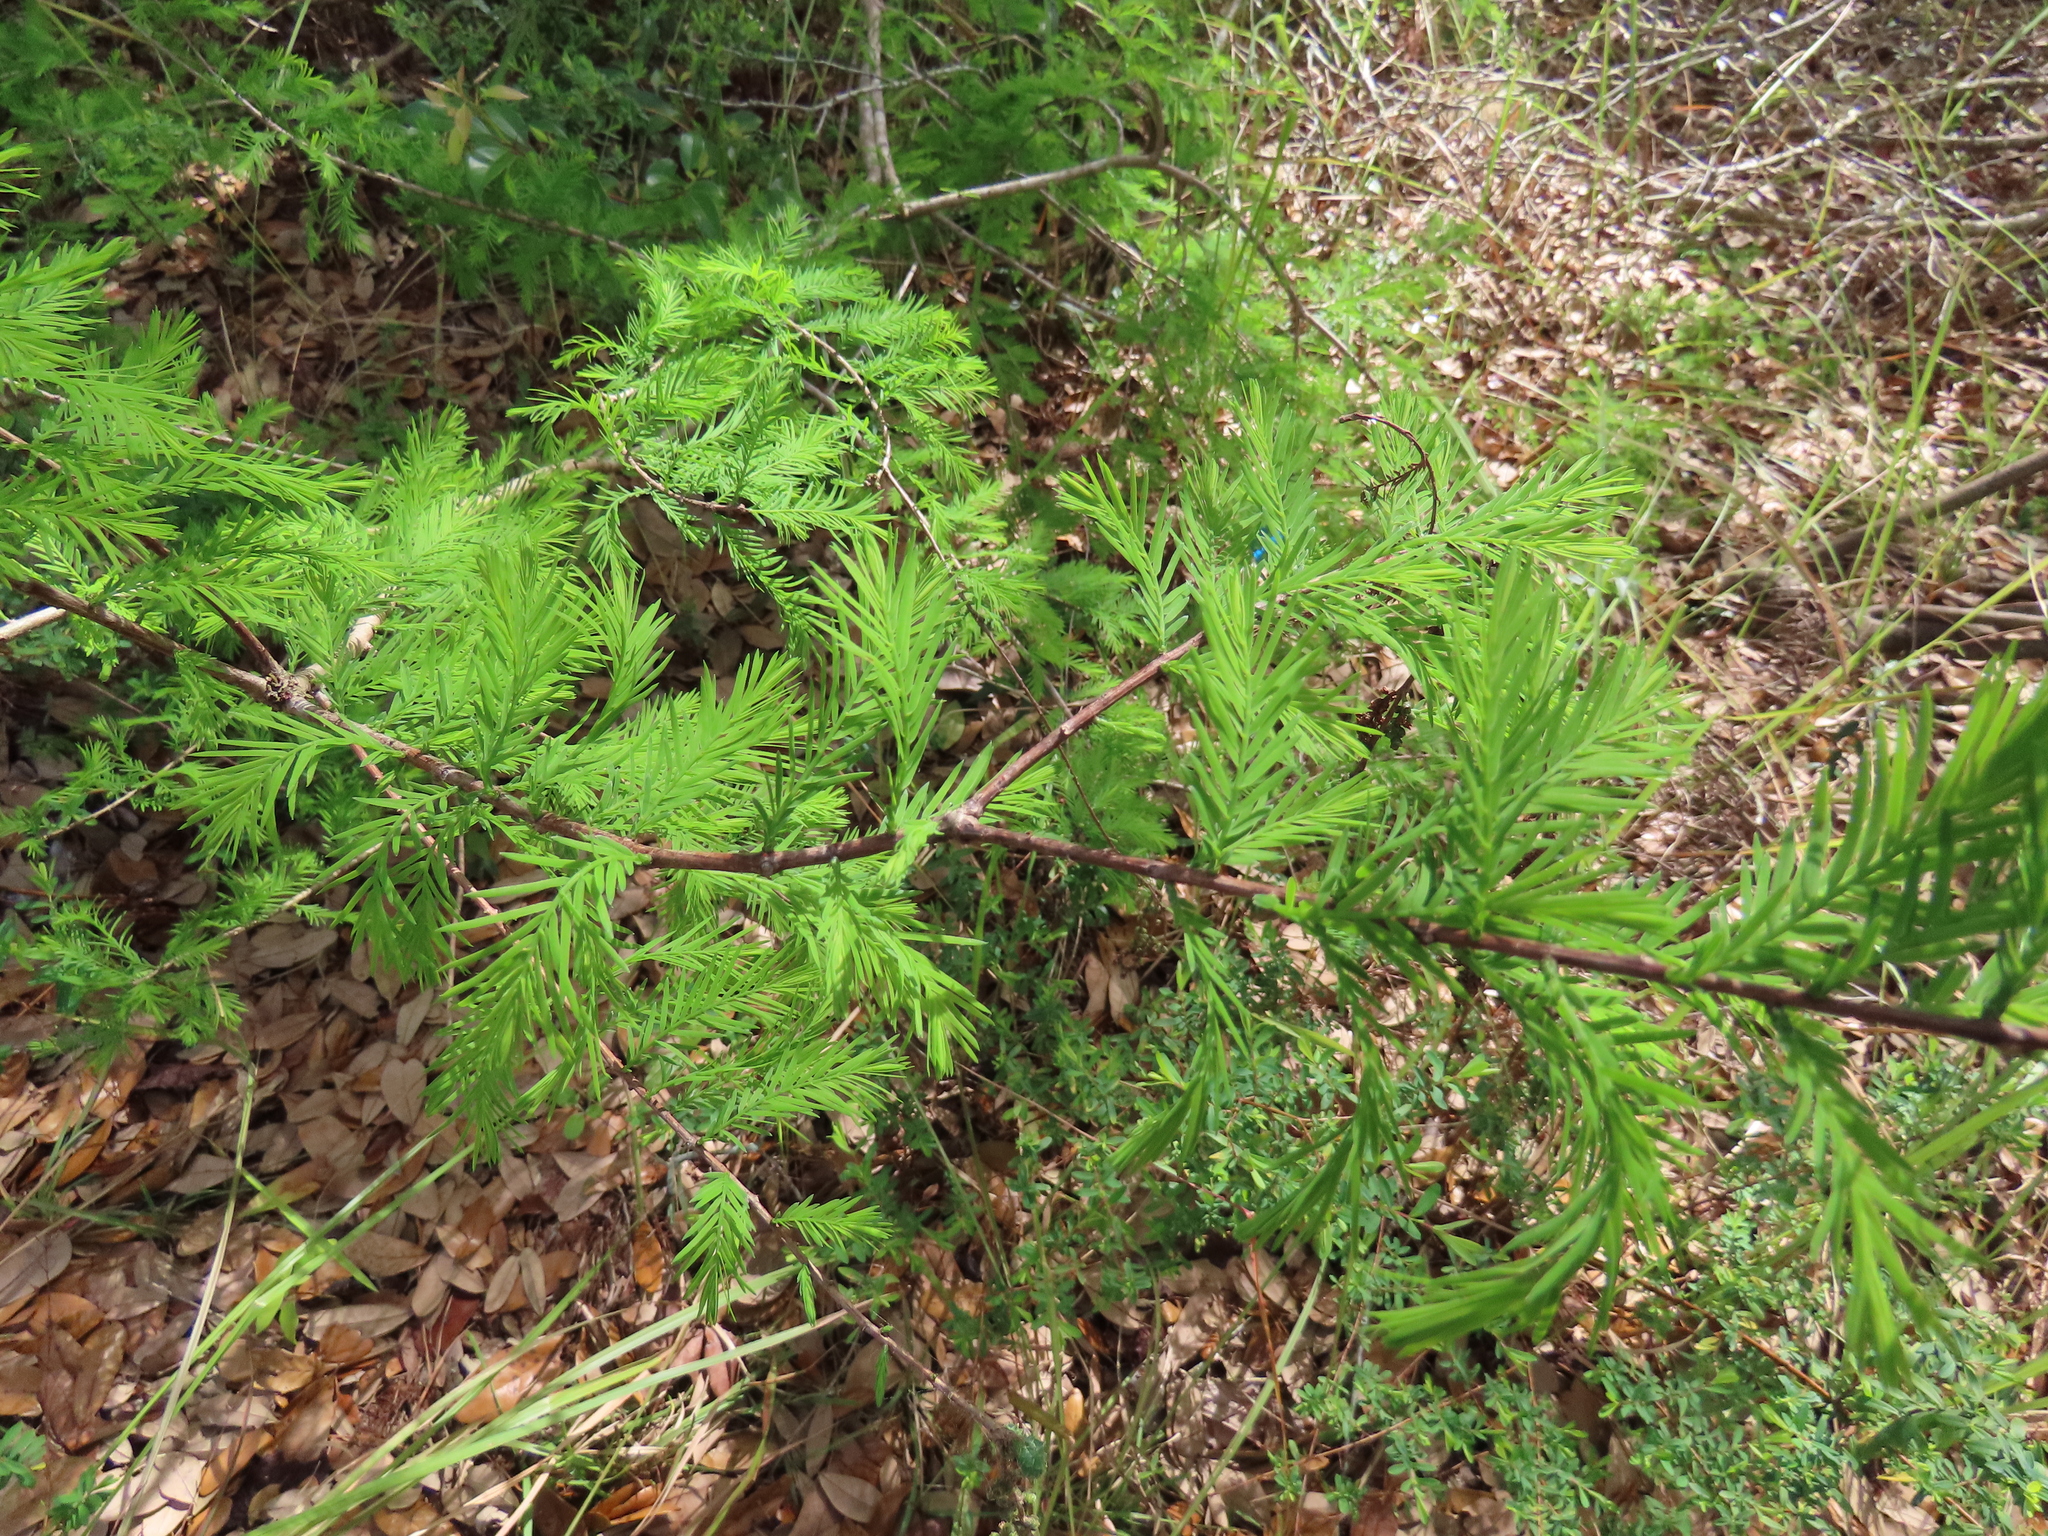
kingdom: Plantae
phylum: Tracheophyta
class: Pinopsida
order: Pinales
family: Cupressaceae
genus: Taxodium
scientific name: Taxodium distichum
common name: Bald cypress
